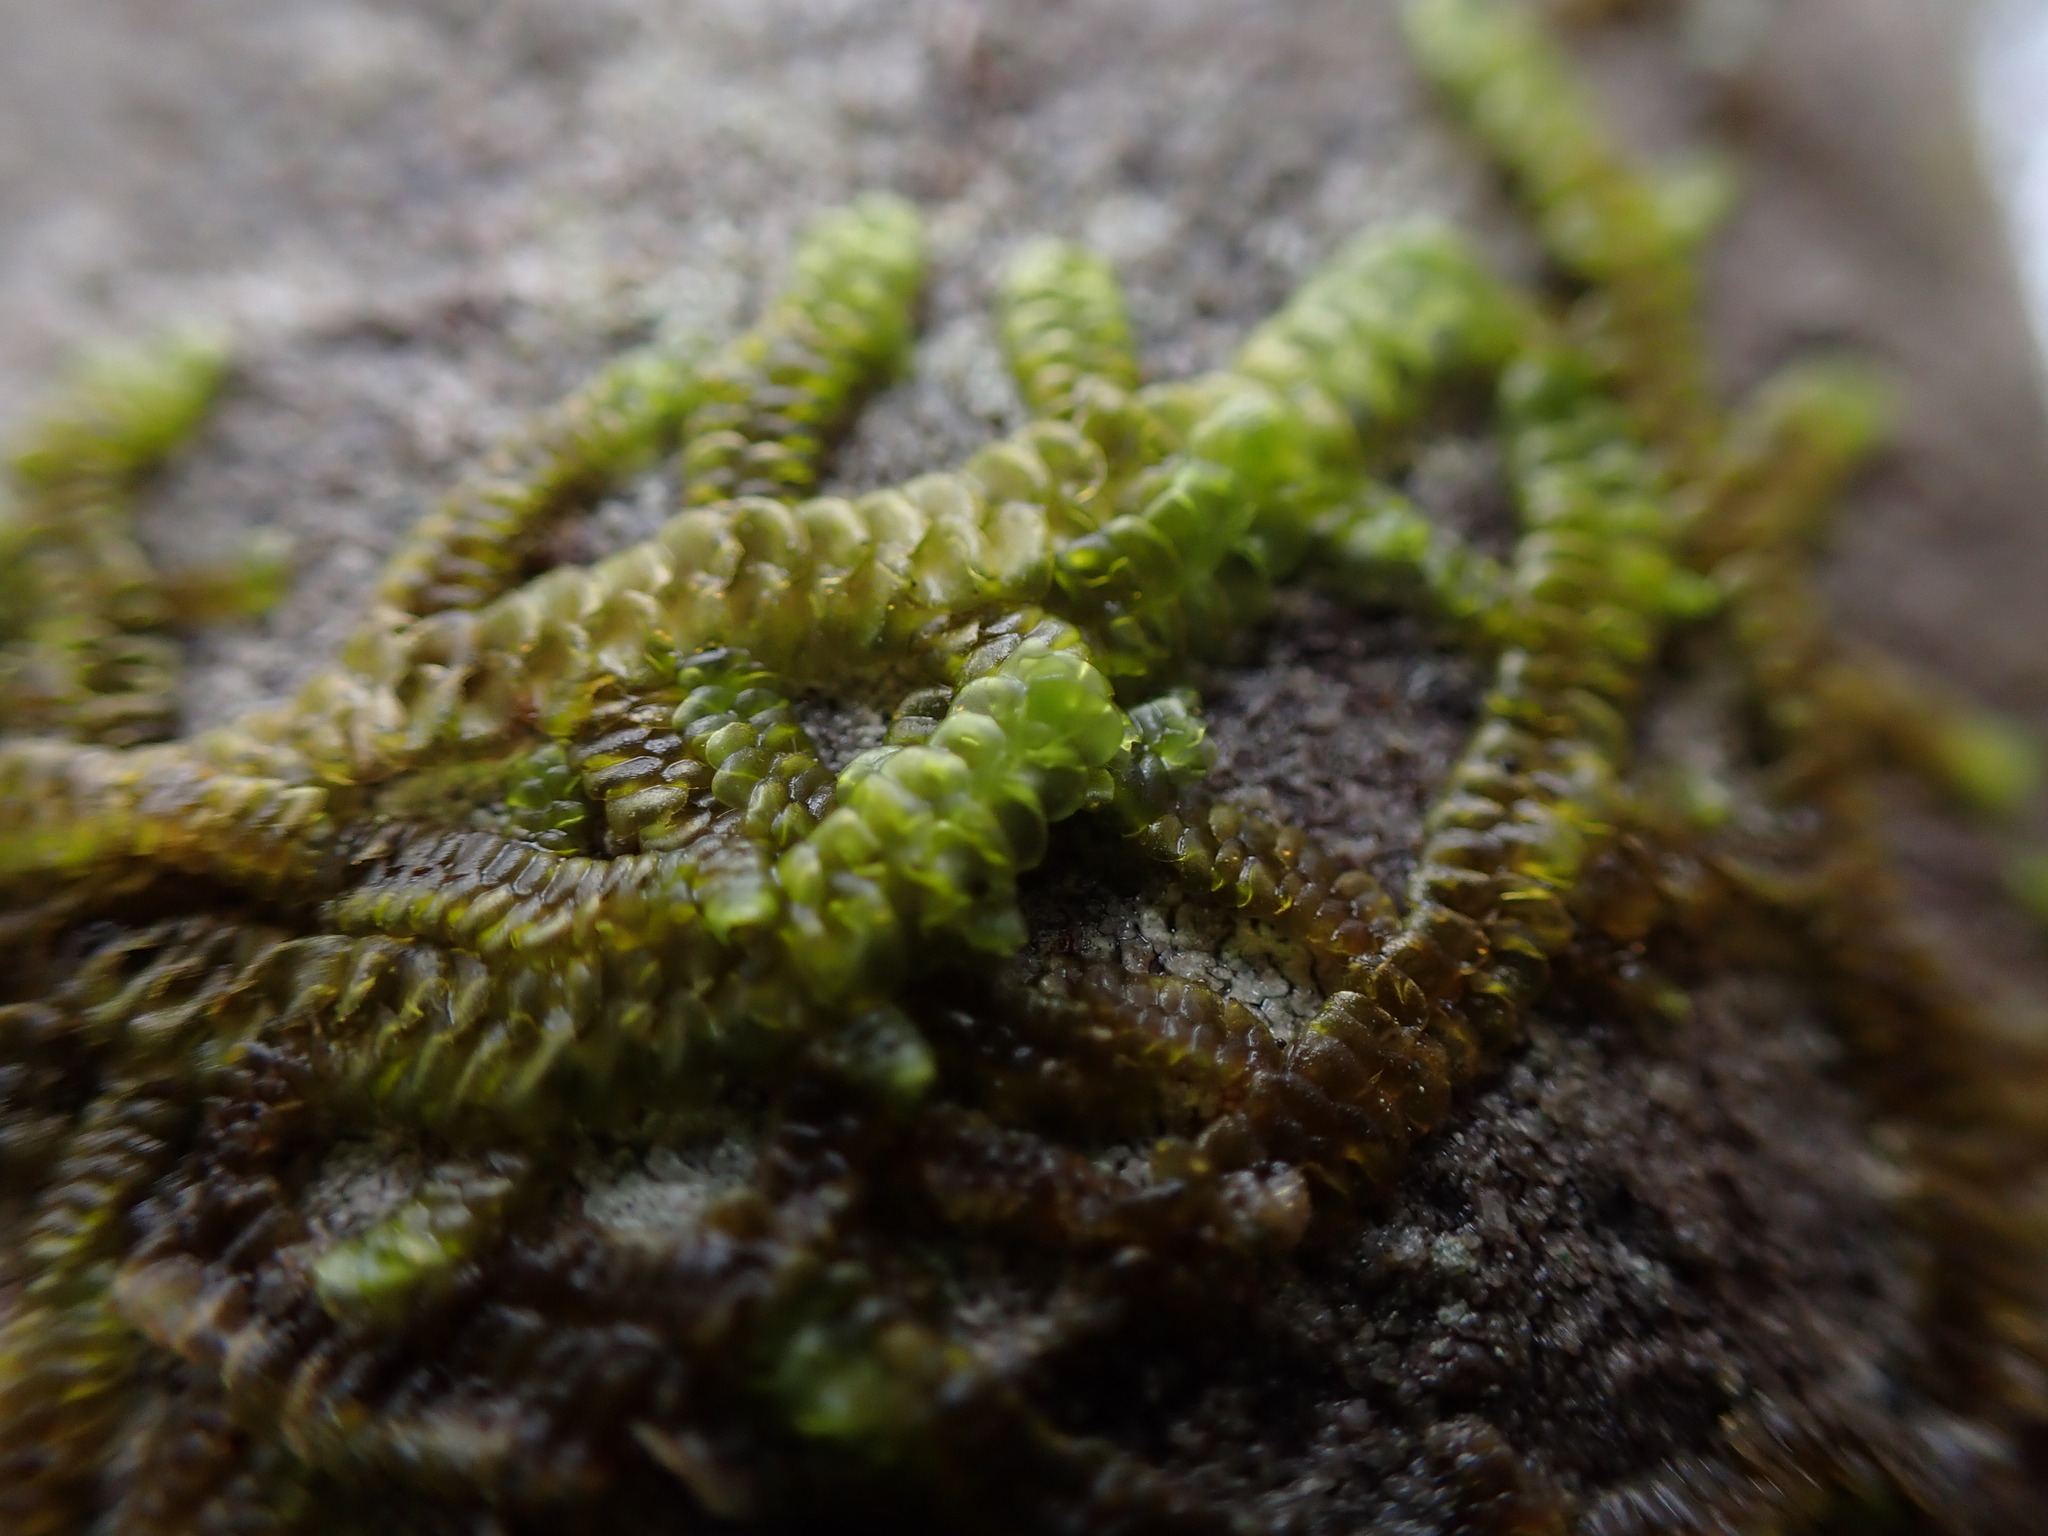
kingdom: Plantae
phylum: Marchantiophyta
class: Jungermanniopsida
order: Porellales
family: Porellaceae
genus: Porella
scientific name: Porella navicularis
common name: Tree ruffle liverwort
